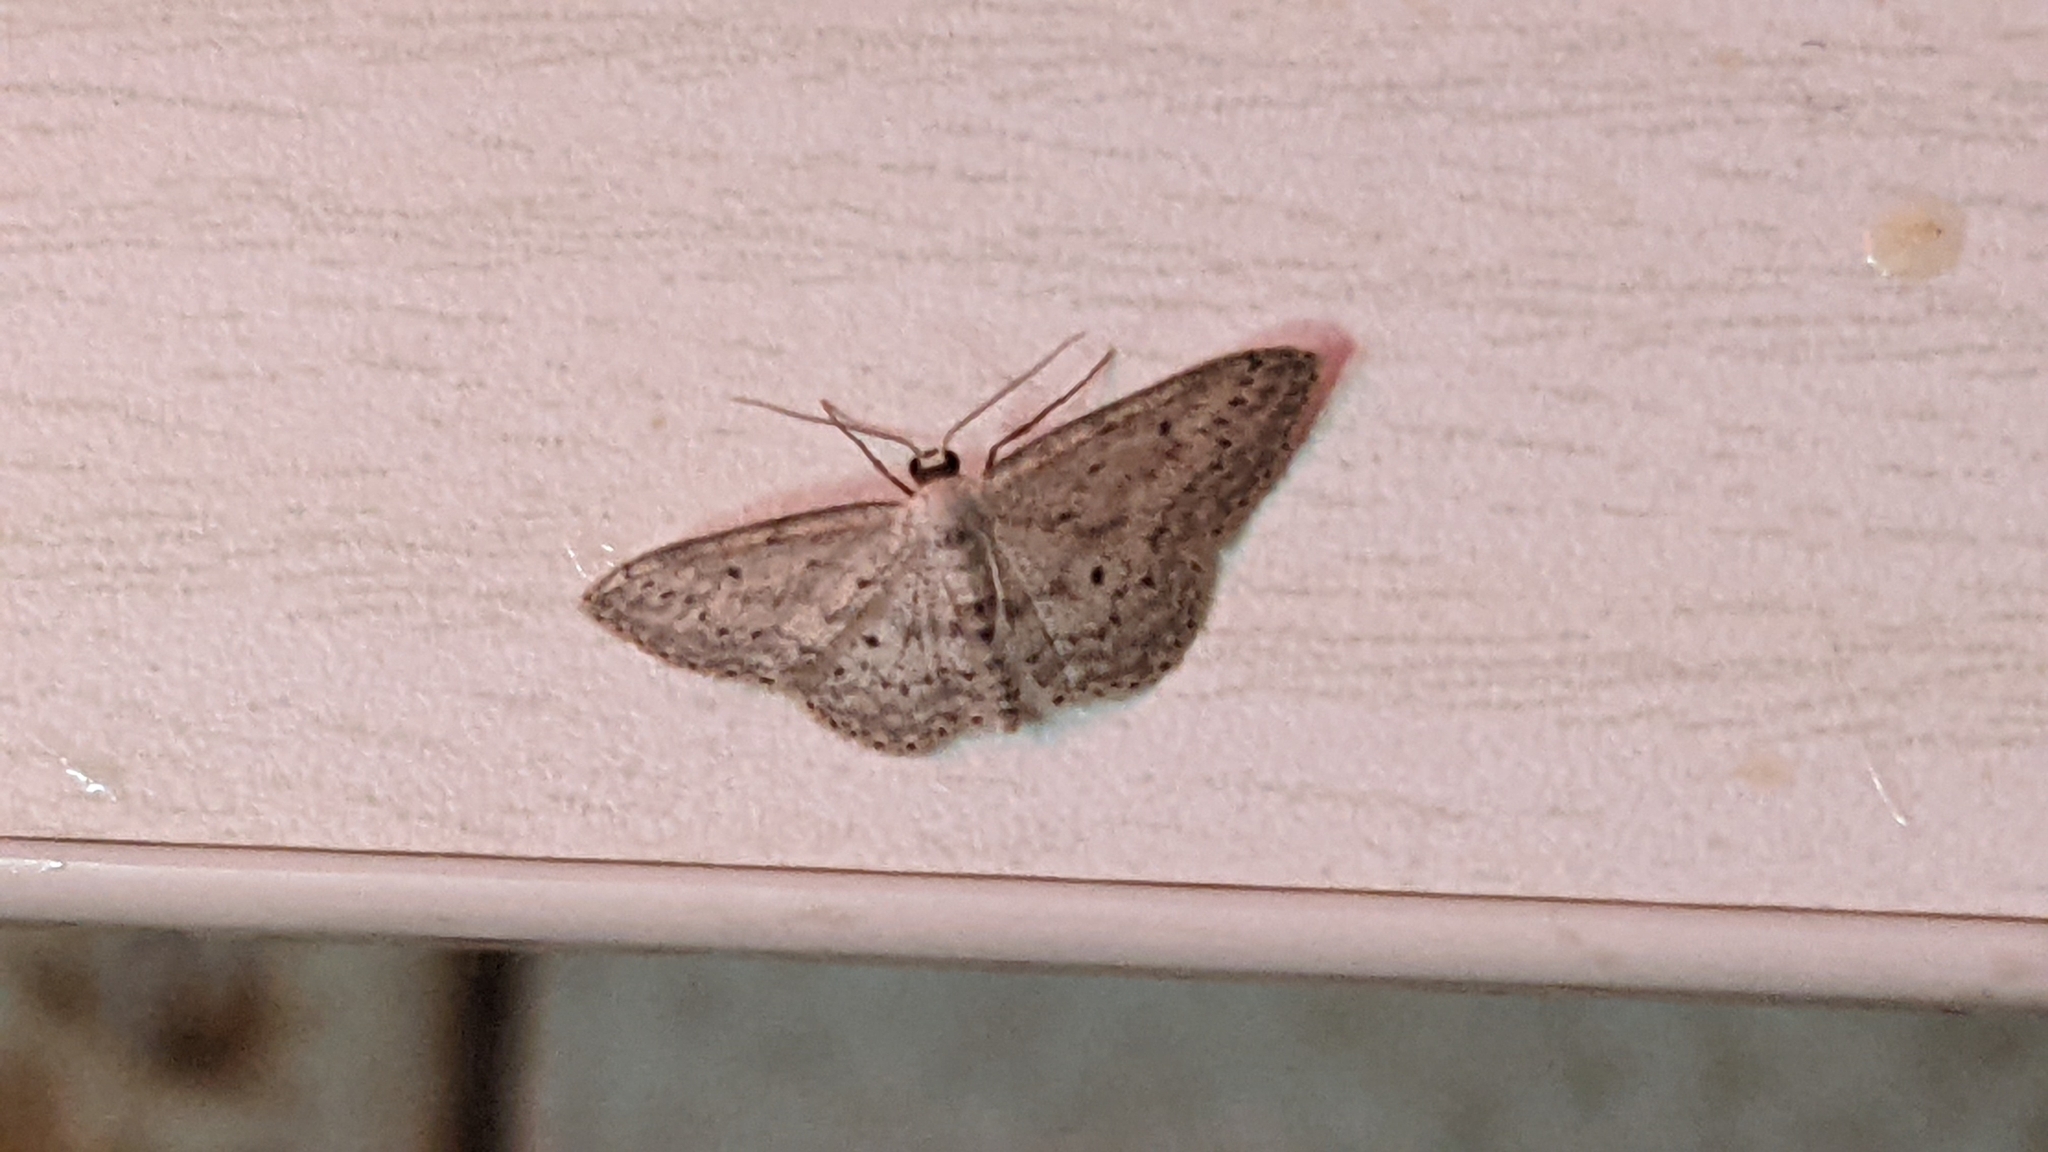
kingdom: Animalia
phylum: Arthropoda
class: Insecta
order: Lepidoptera
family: Geometridae
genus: Idaea
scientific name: Idaea seriata
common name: Small dusty wave
